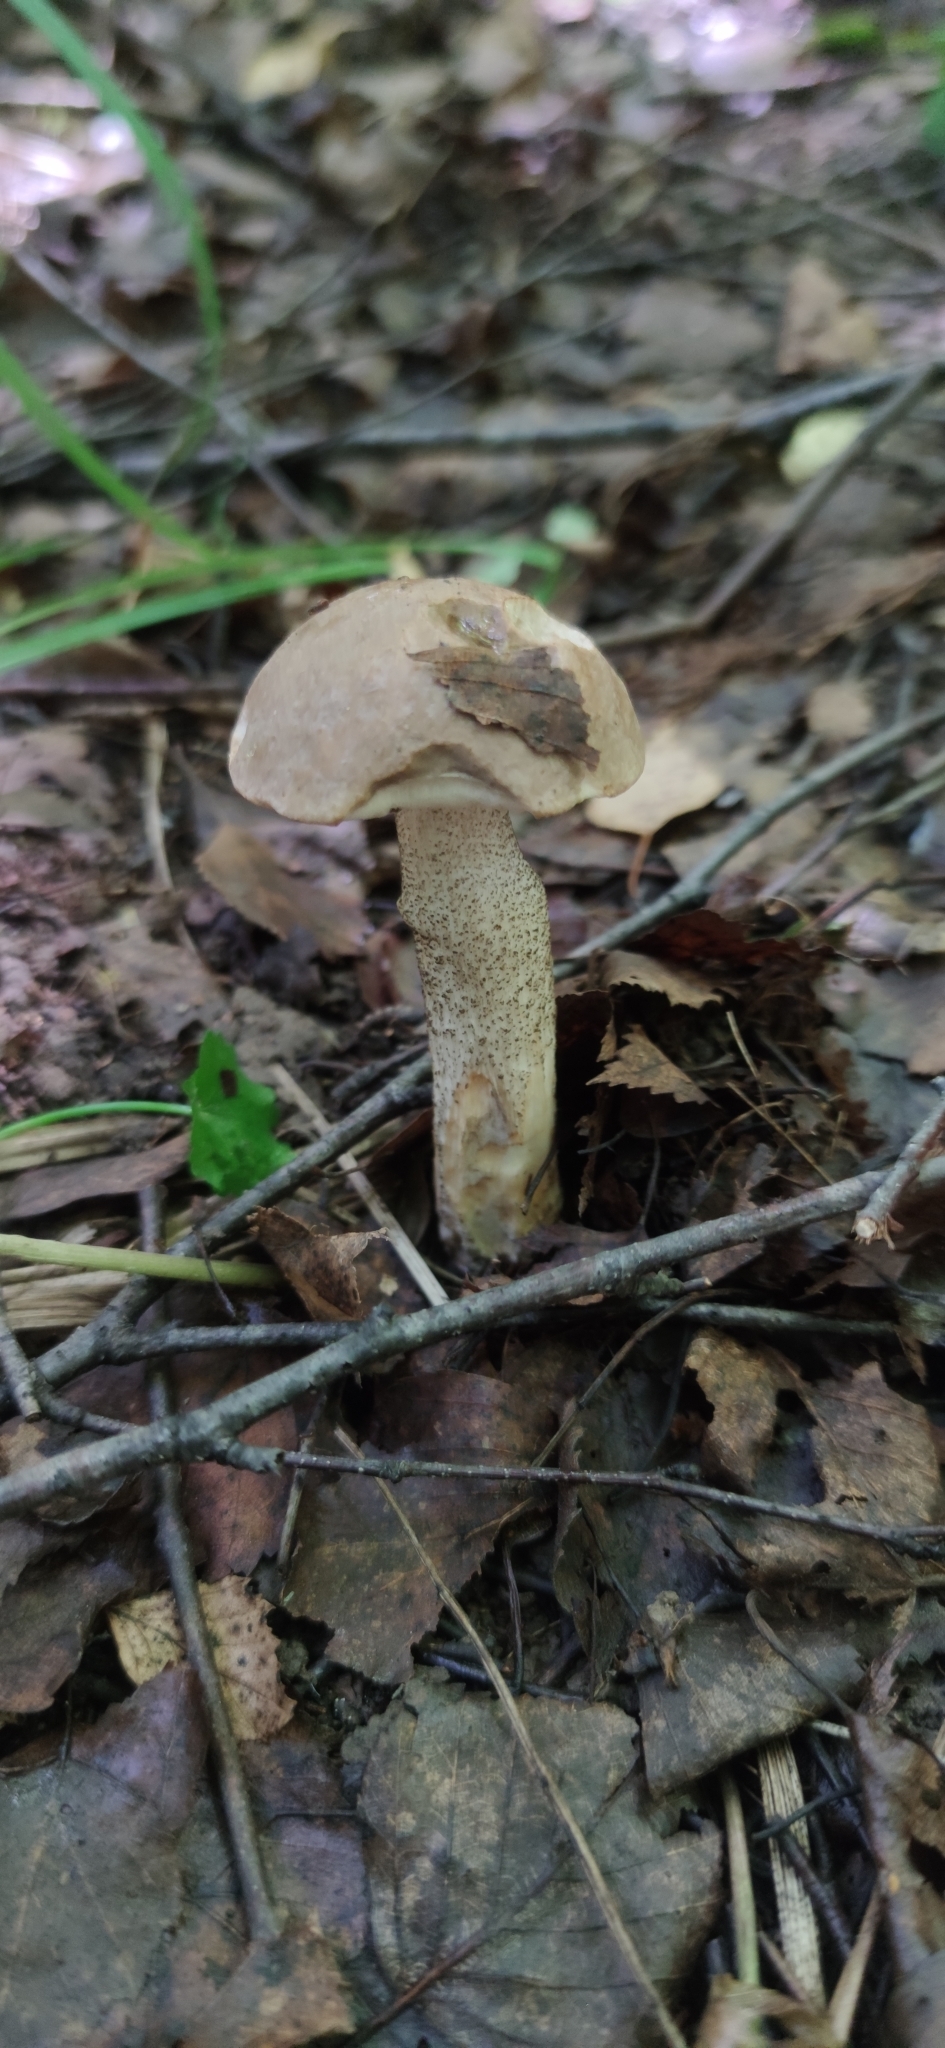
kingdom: Fungi
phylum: Basidiomycota
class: Agaricomycetes
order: Boletales
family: Boletaceae
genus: Leccinum
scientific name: Leccinum scabrum
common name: Blushing bolete
